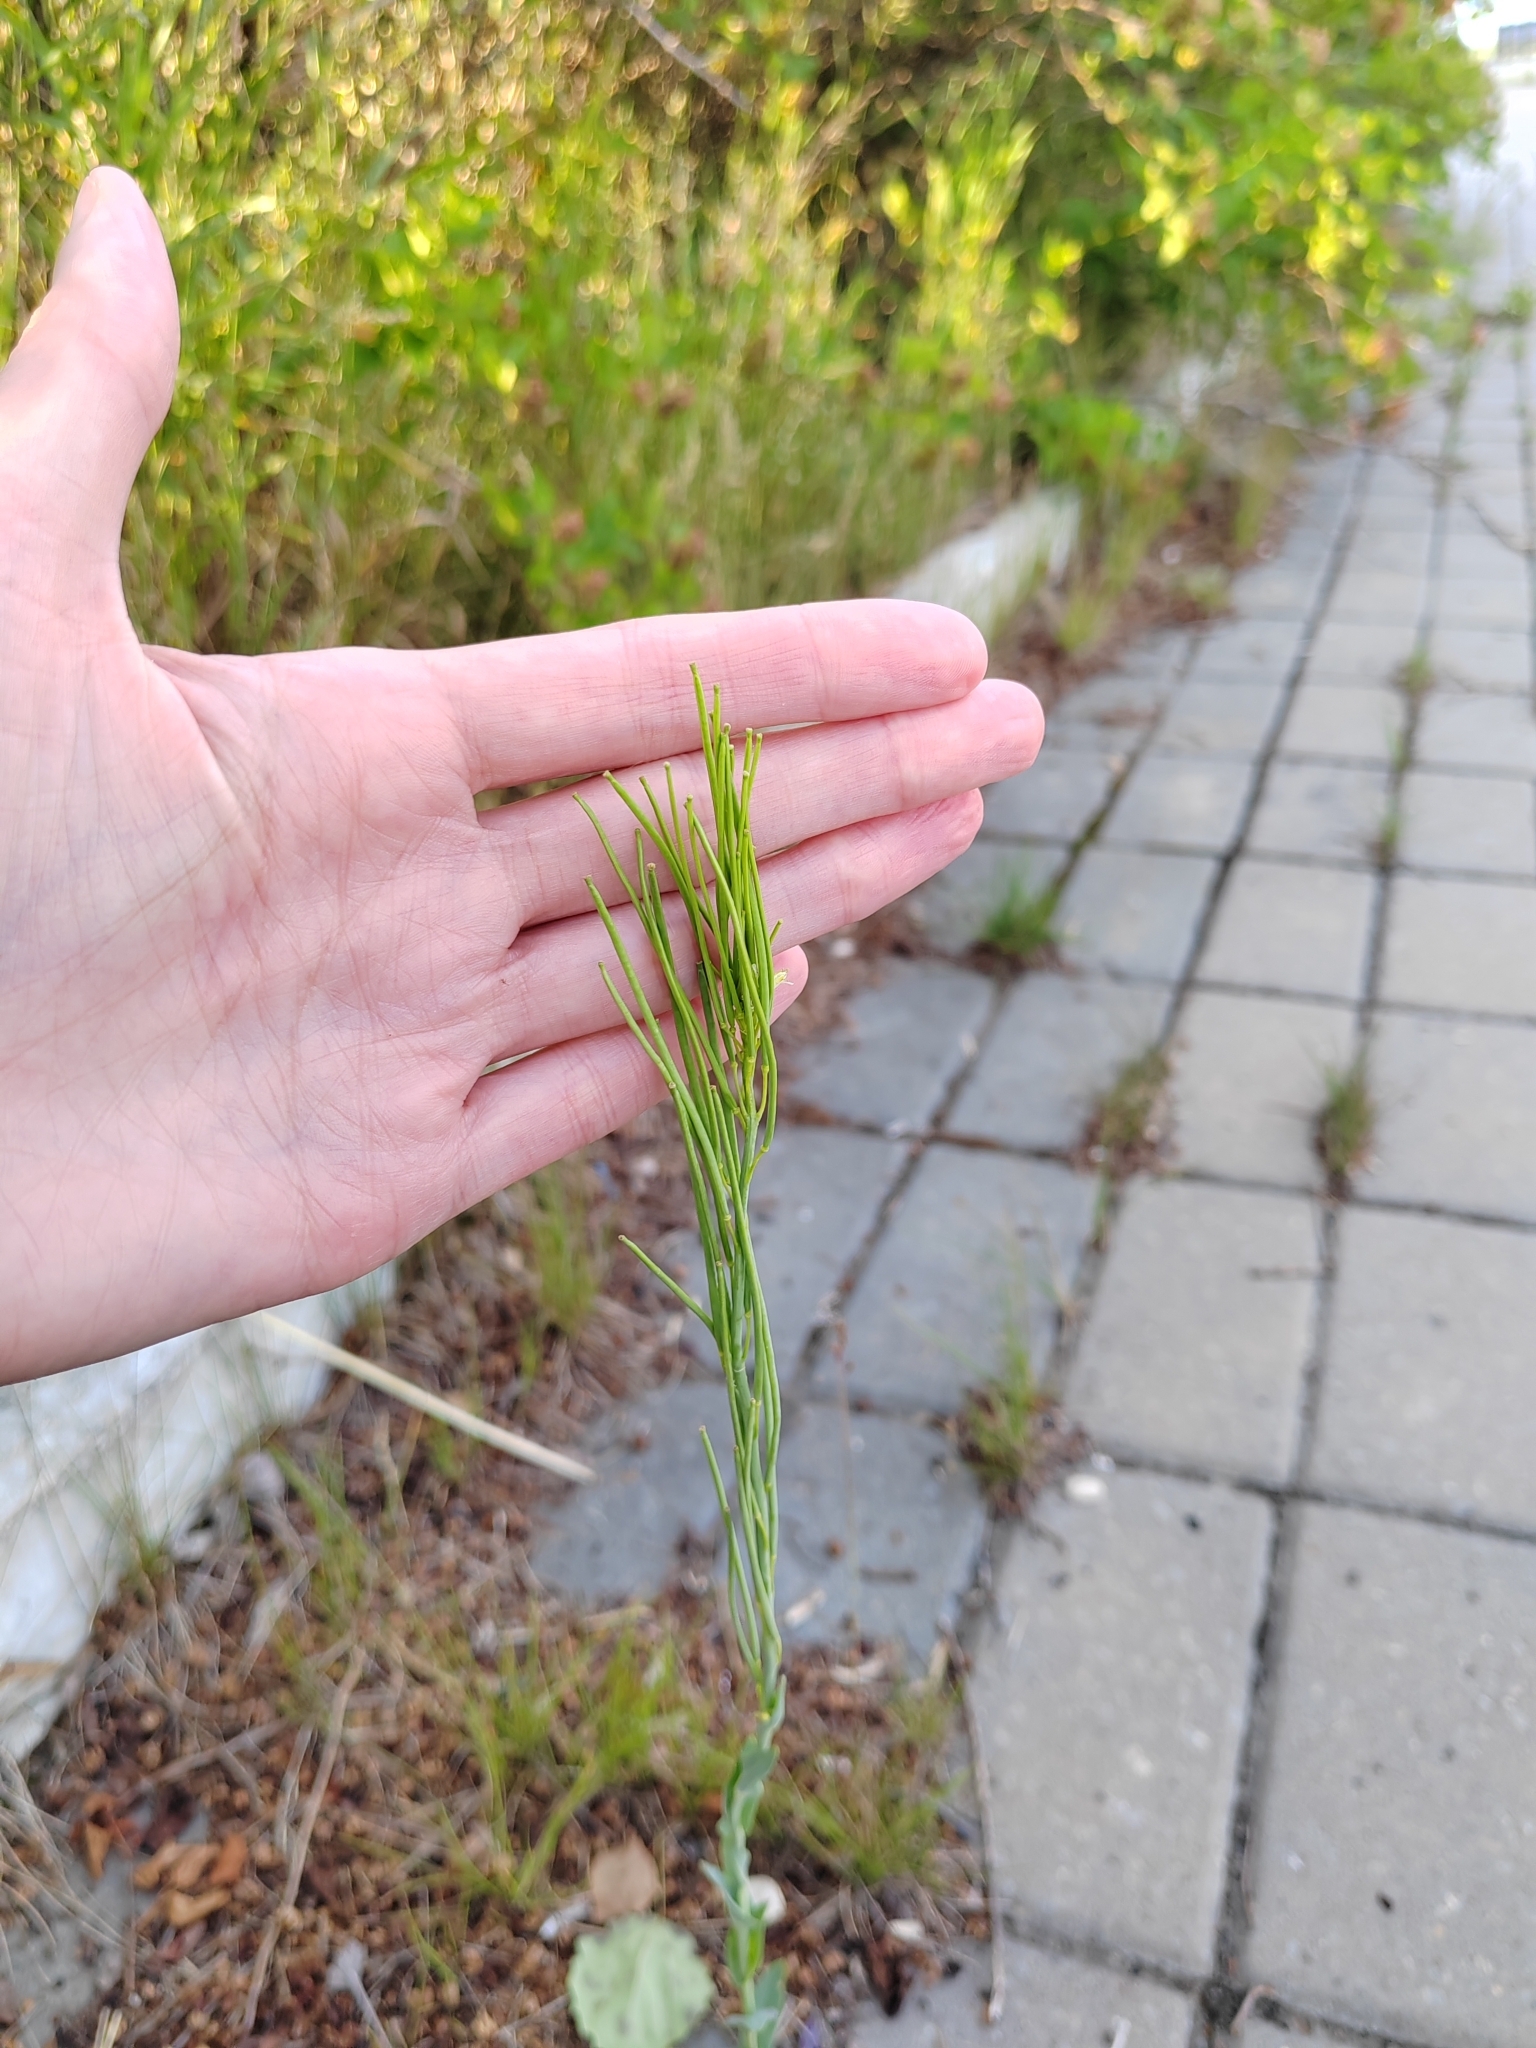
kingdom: Plantae
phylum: Tracheophyta
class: Magnoliopsida
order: Brassicales
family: Brassicaceae
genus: Turritis
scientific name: Turritis glabra
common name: Tower rockcress
